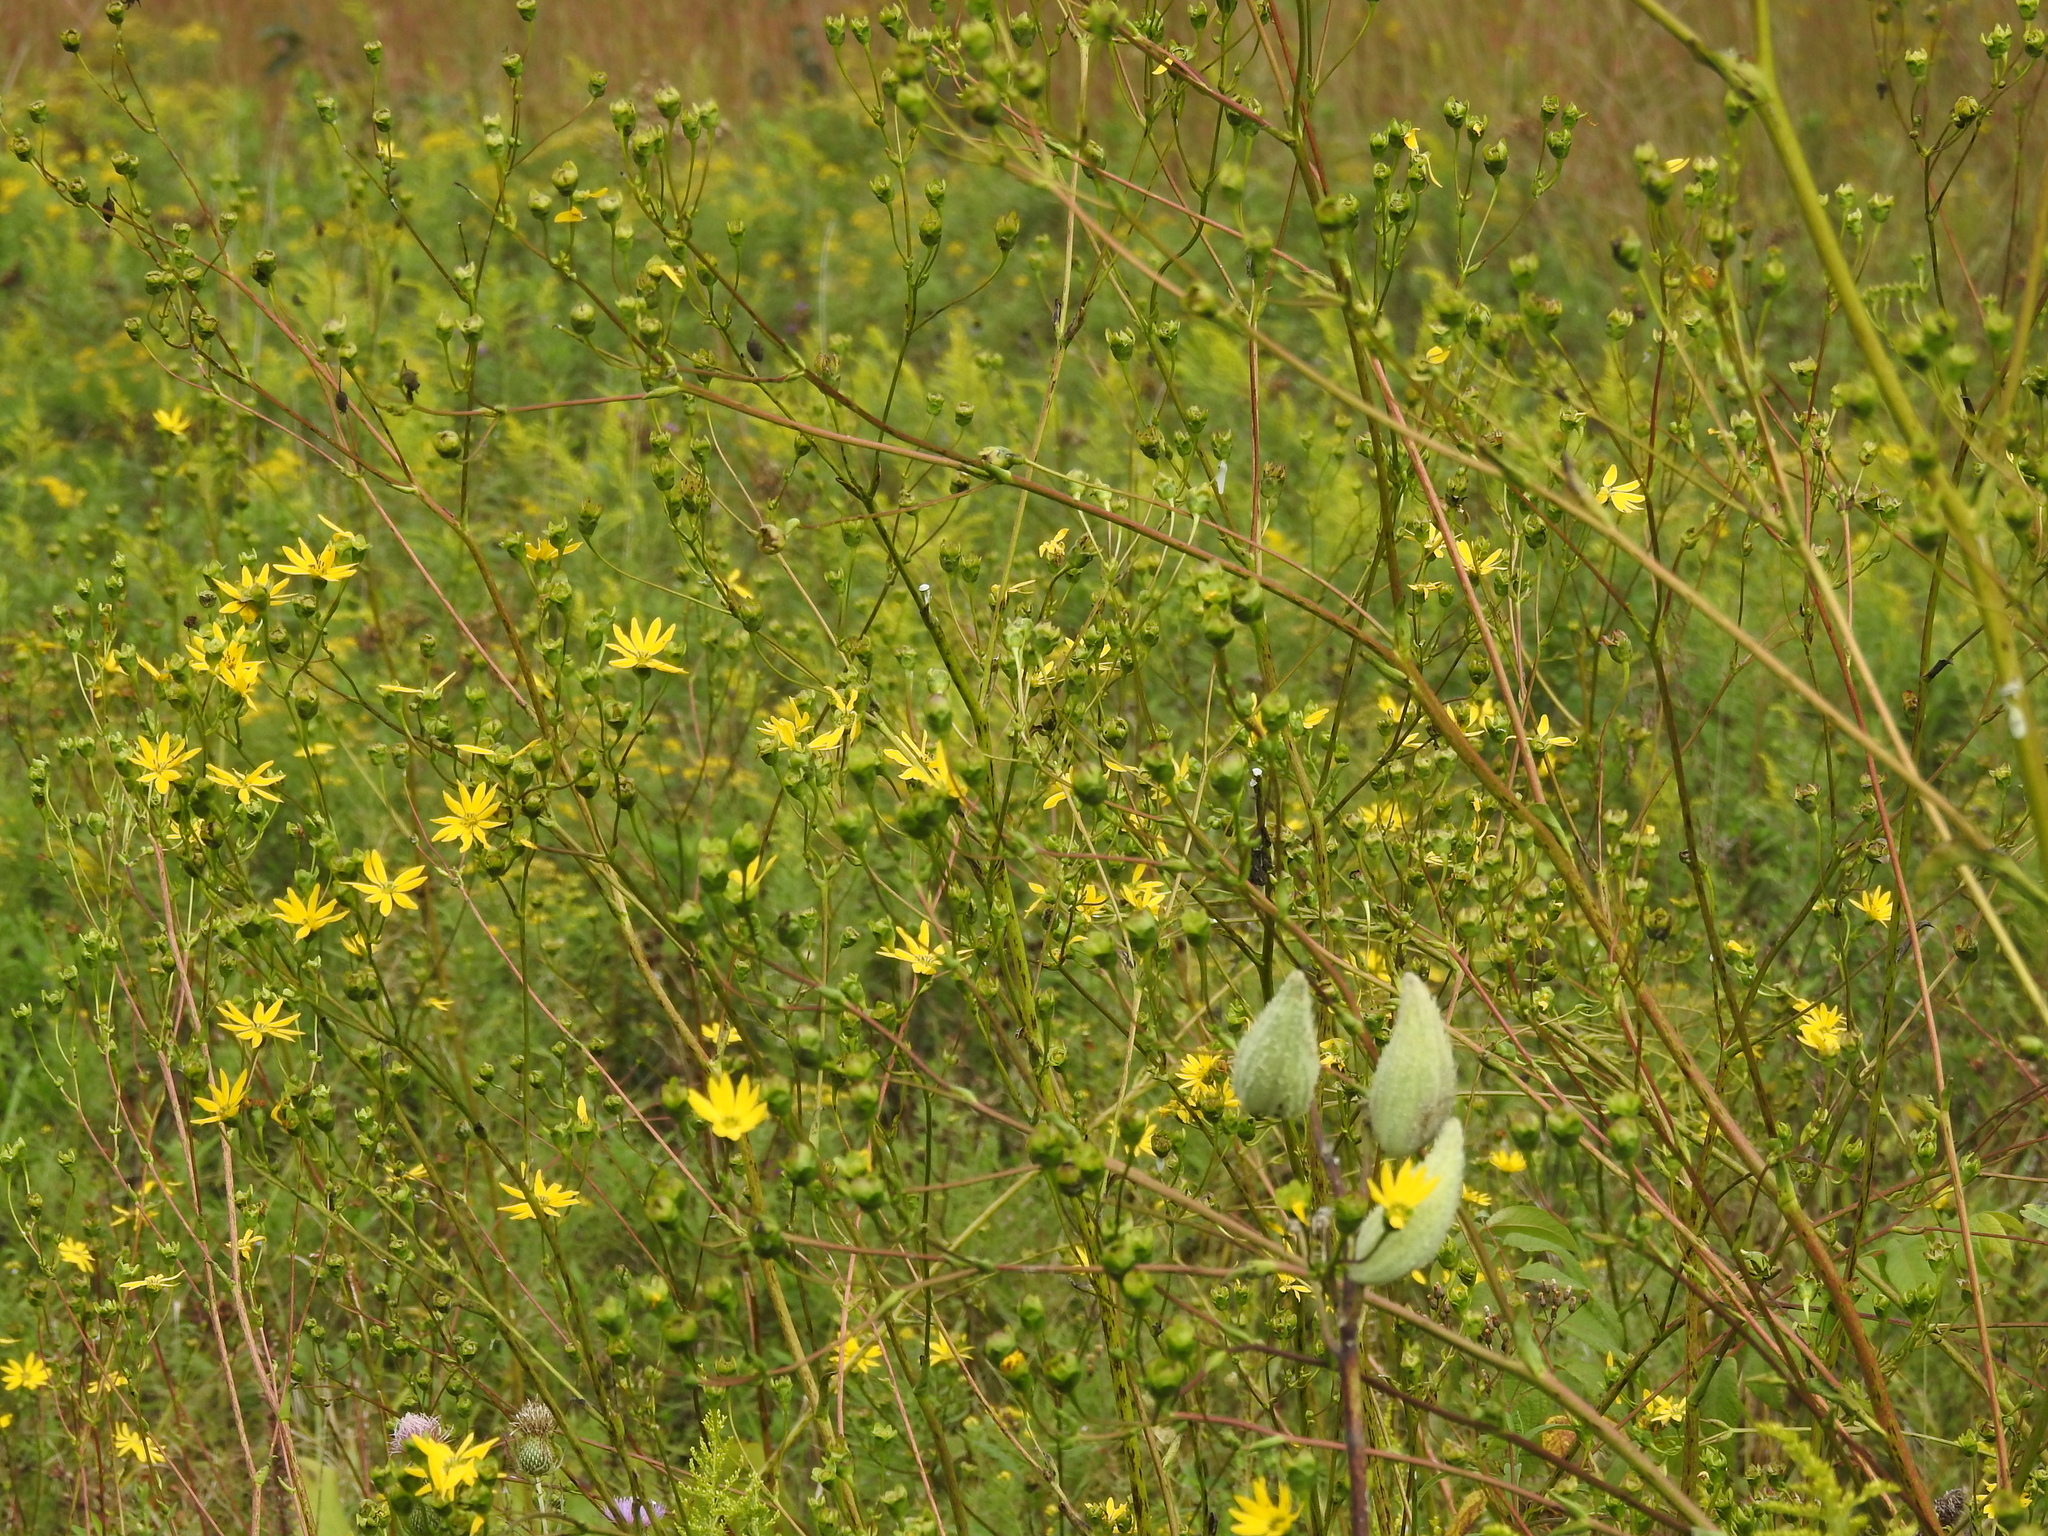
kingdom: Plantae
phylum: Tracheophyta
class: Magnoliopsida
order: Asterales
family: Asteraceae
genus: Silphium
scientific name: Silphium terebinthinaceum
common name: Basal-leaf rosinweed
